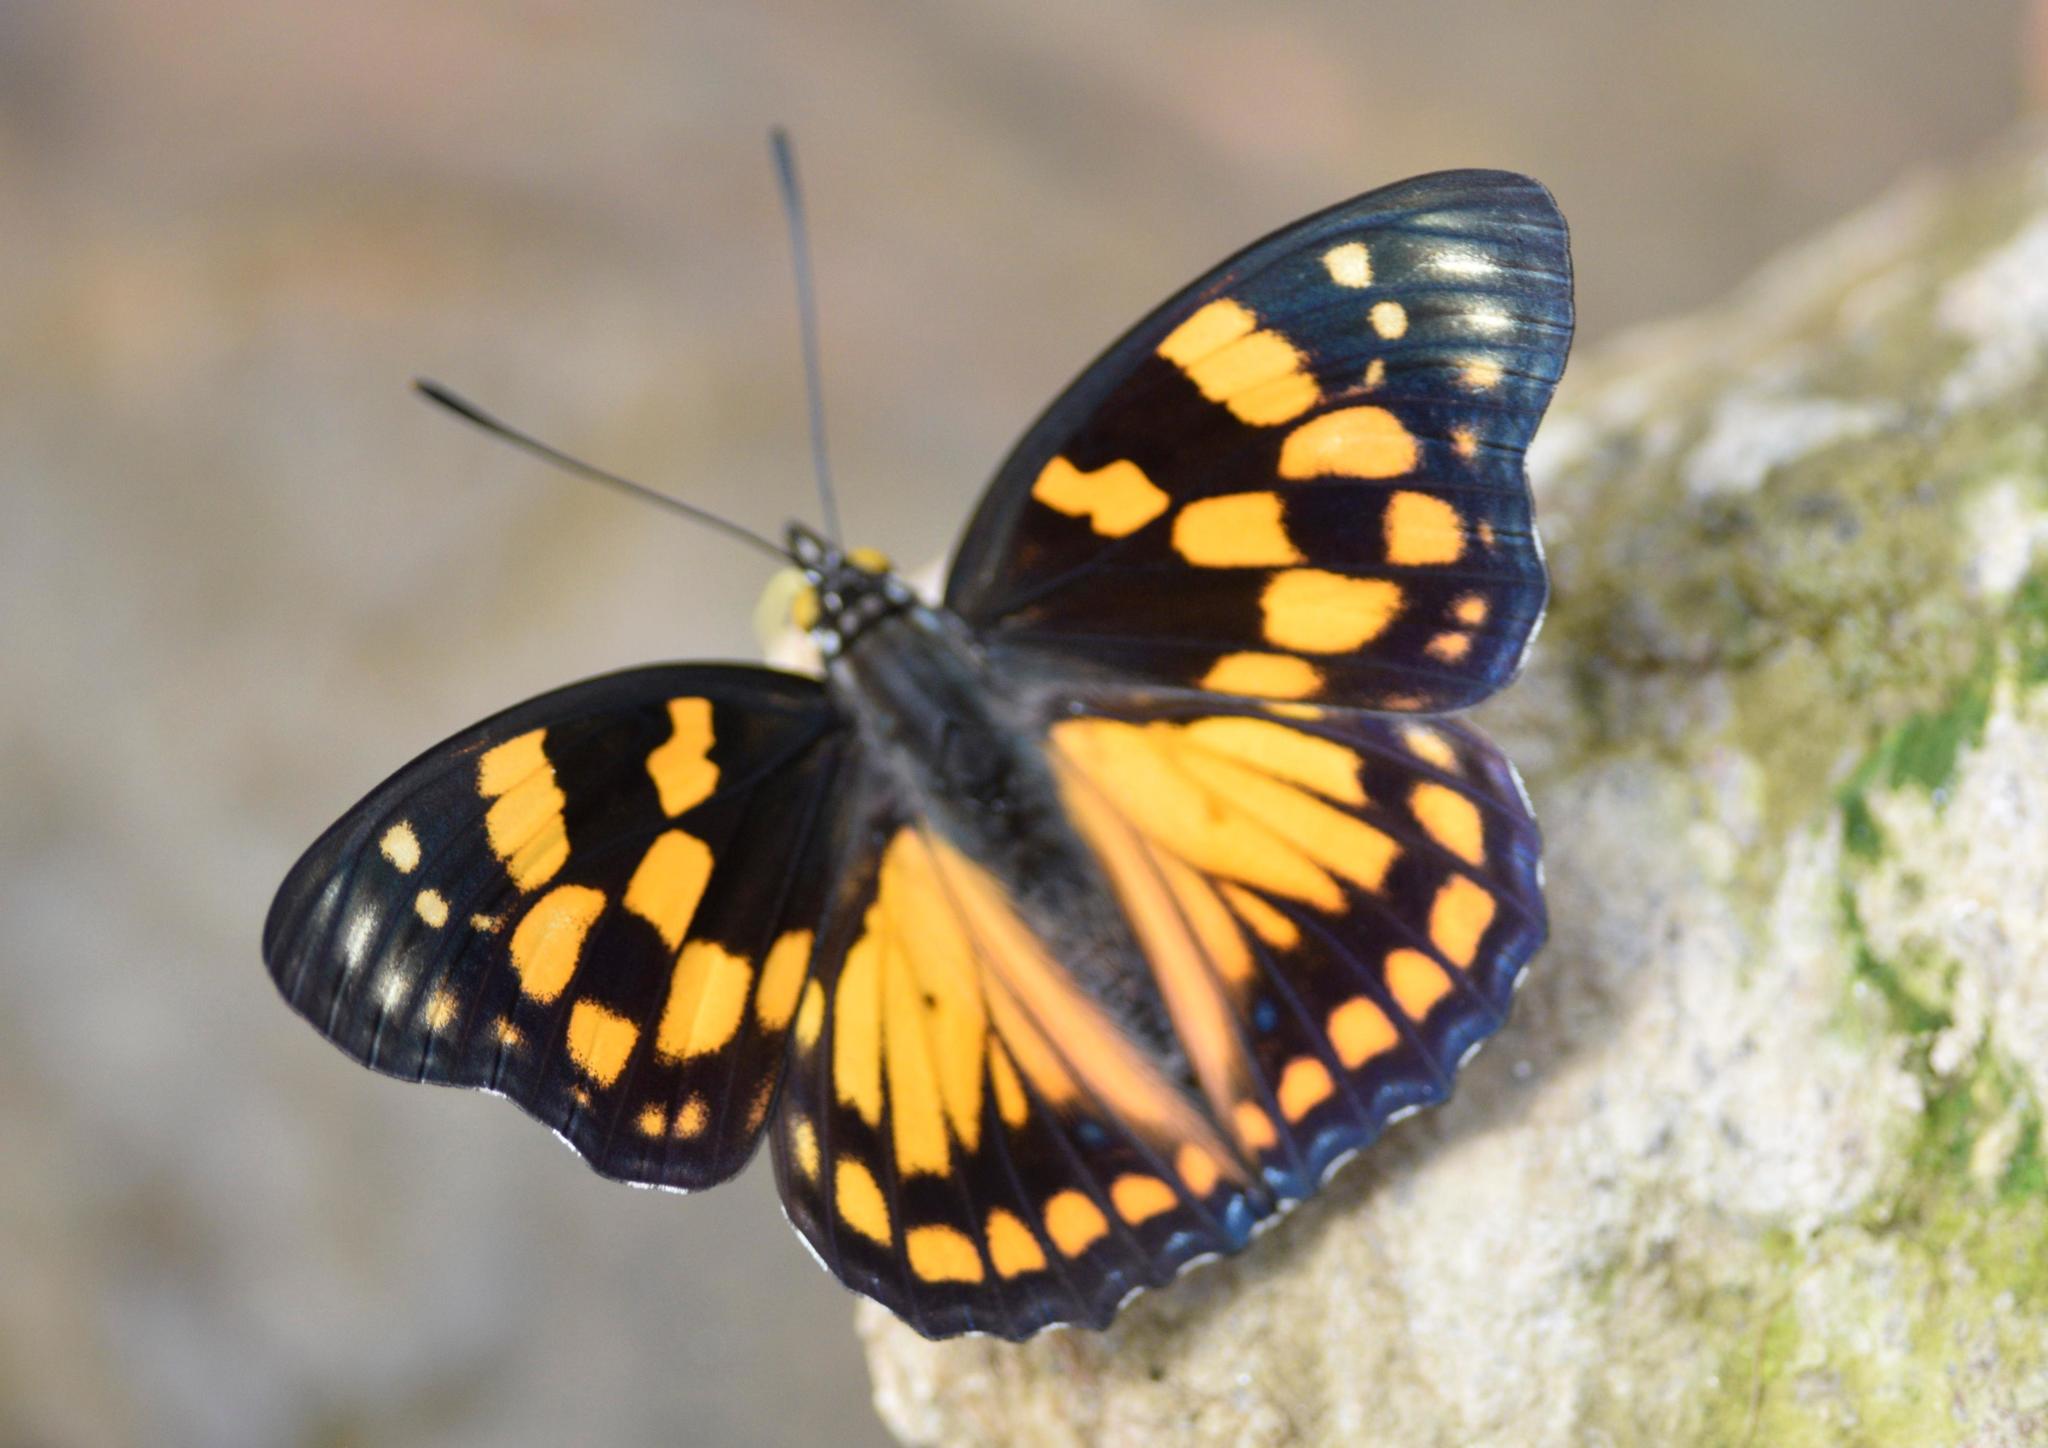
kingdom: Animalia
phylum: Arthropoda
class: Insecta
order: Lepidoptera
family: Nymphalidae
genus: Sephisa
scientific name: Sephisa dichroa
